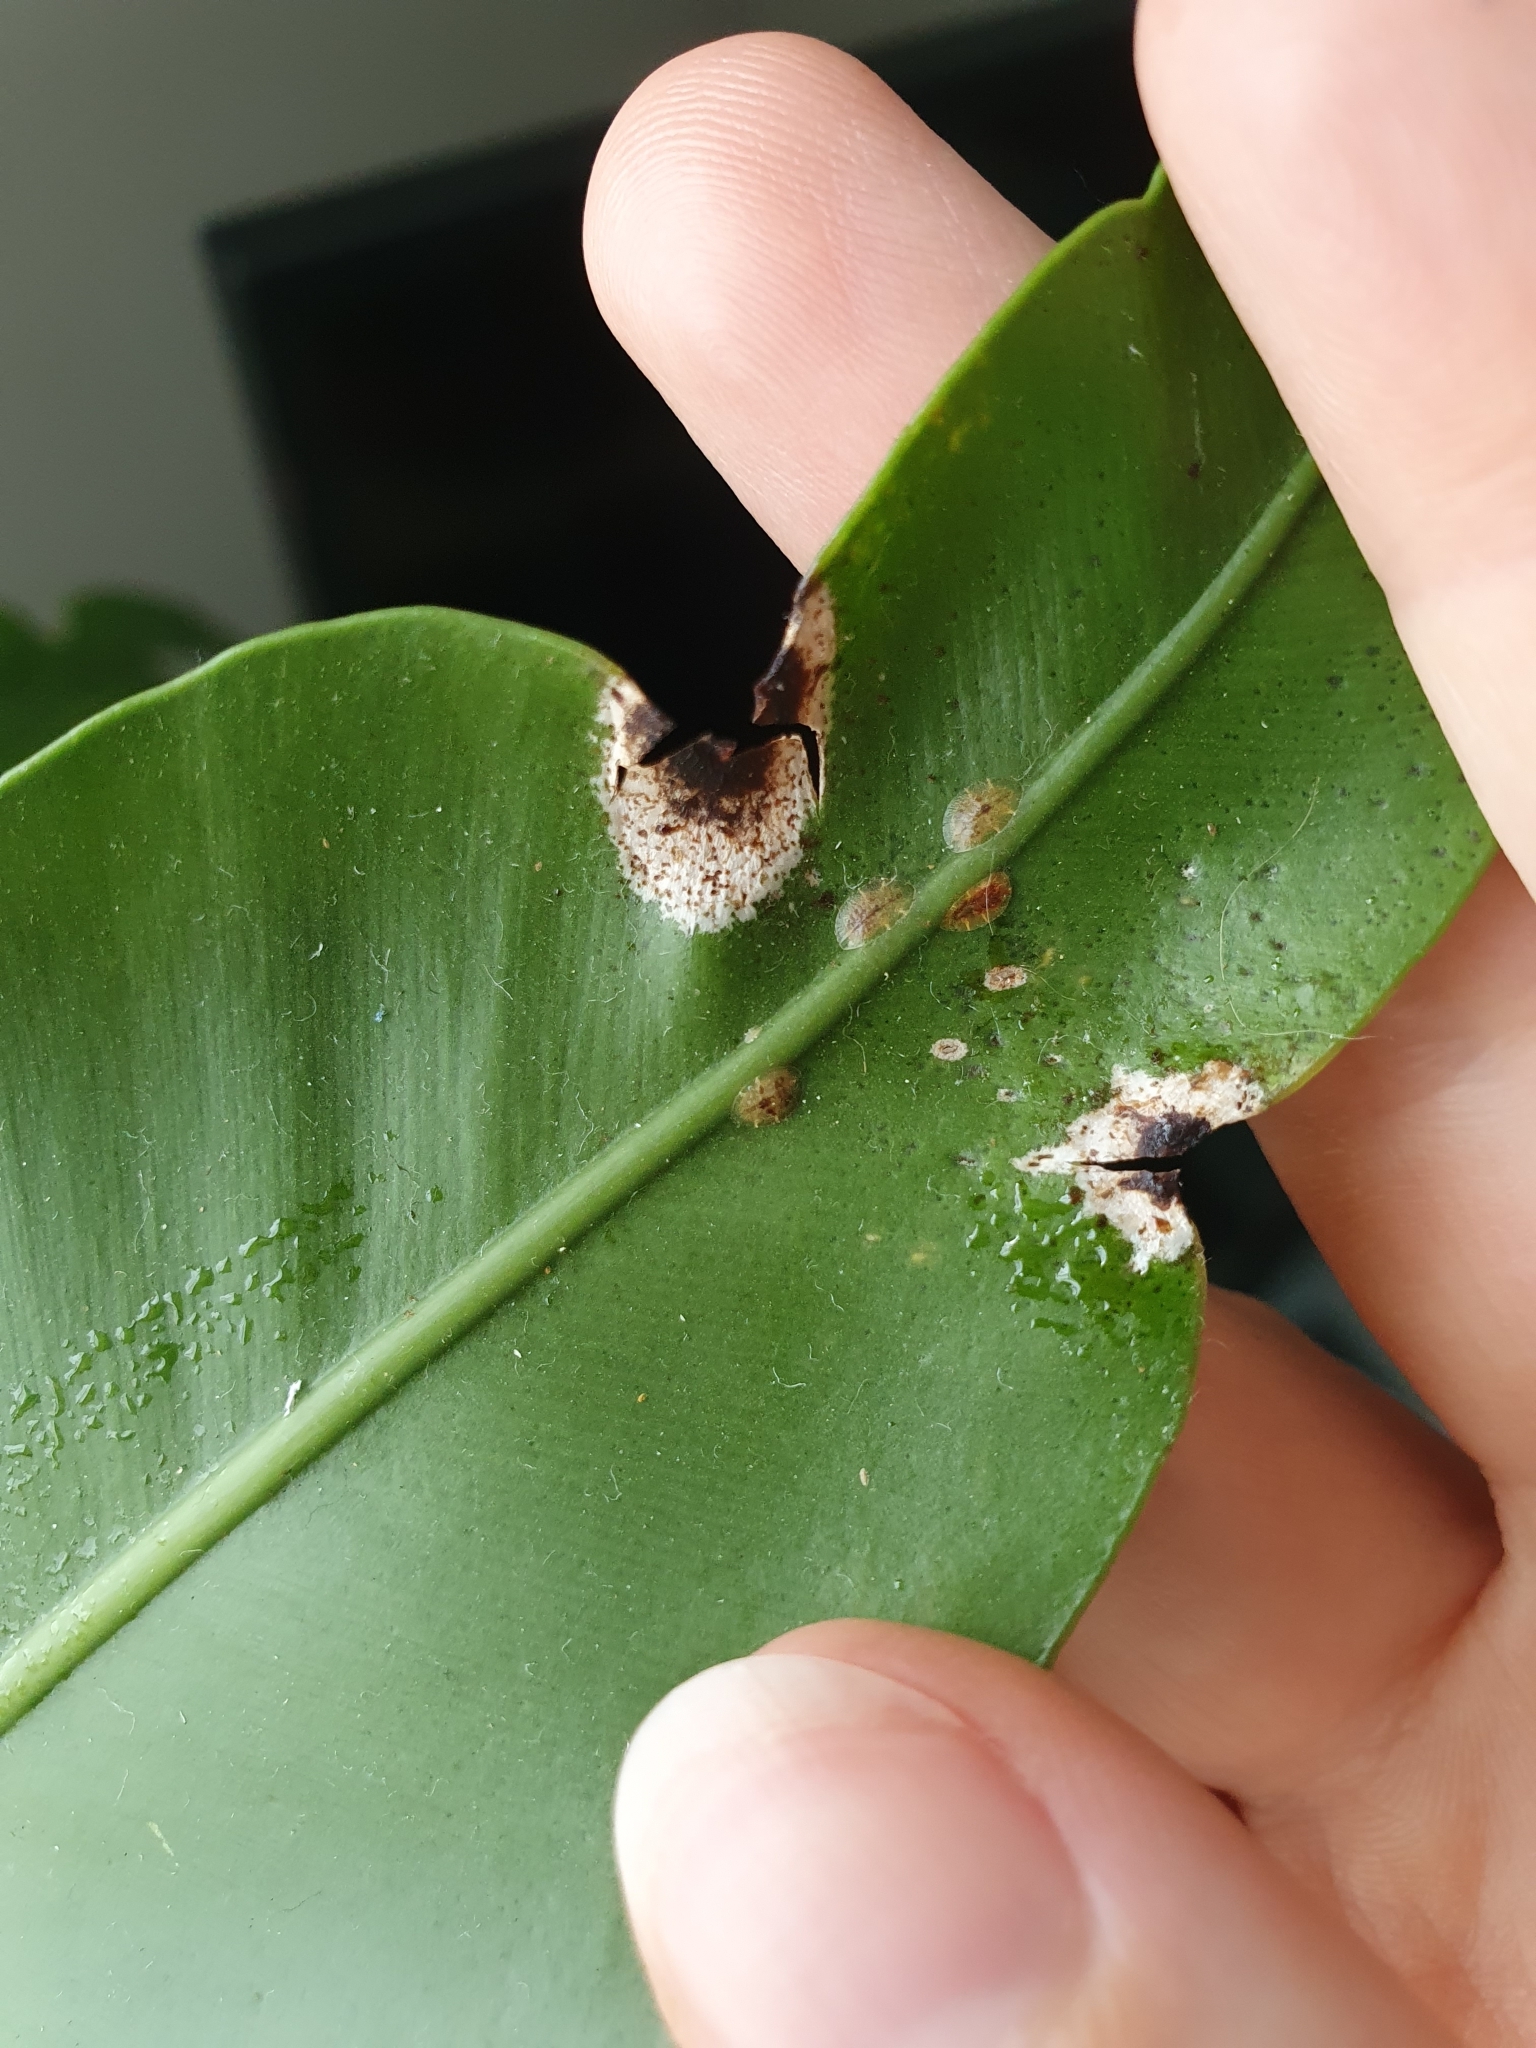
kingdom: Animalia
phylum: Arthropoda
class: Insecta
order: Hemiptera
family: Coccidae
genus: Coccus
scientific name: Coccus hesperidum
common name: Soft brown scale
